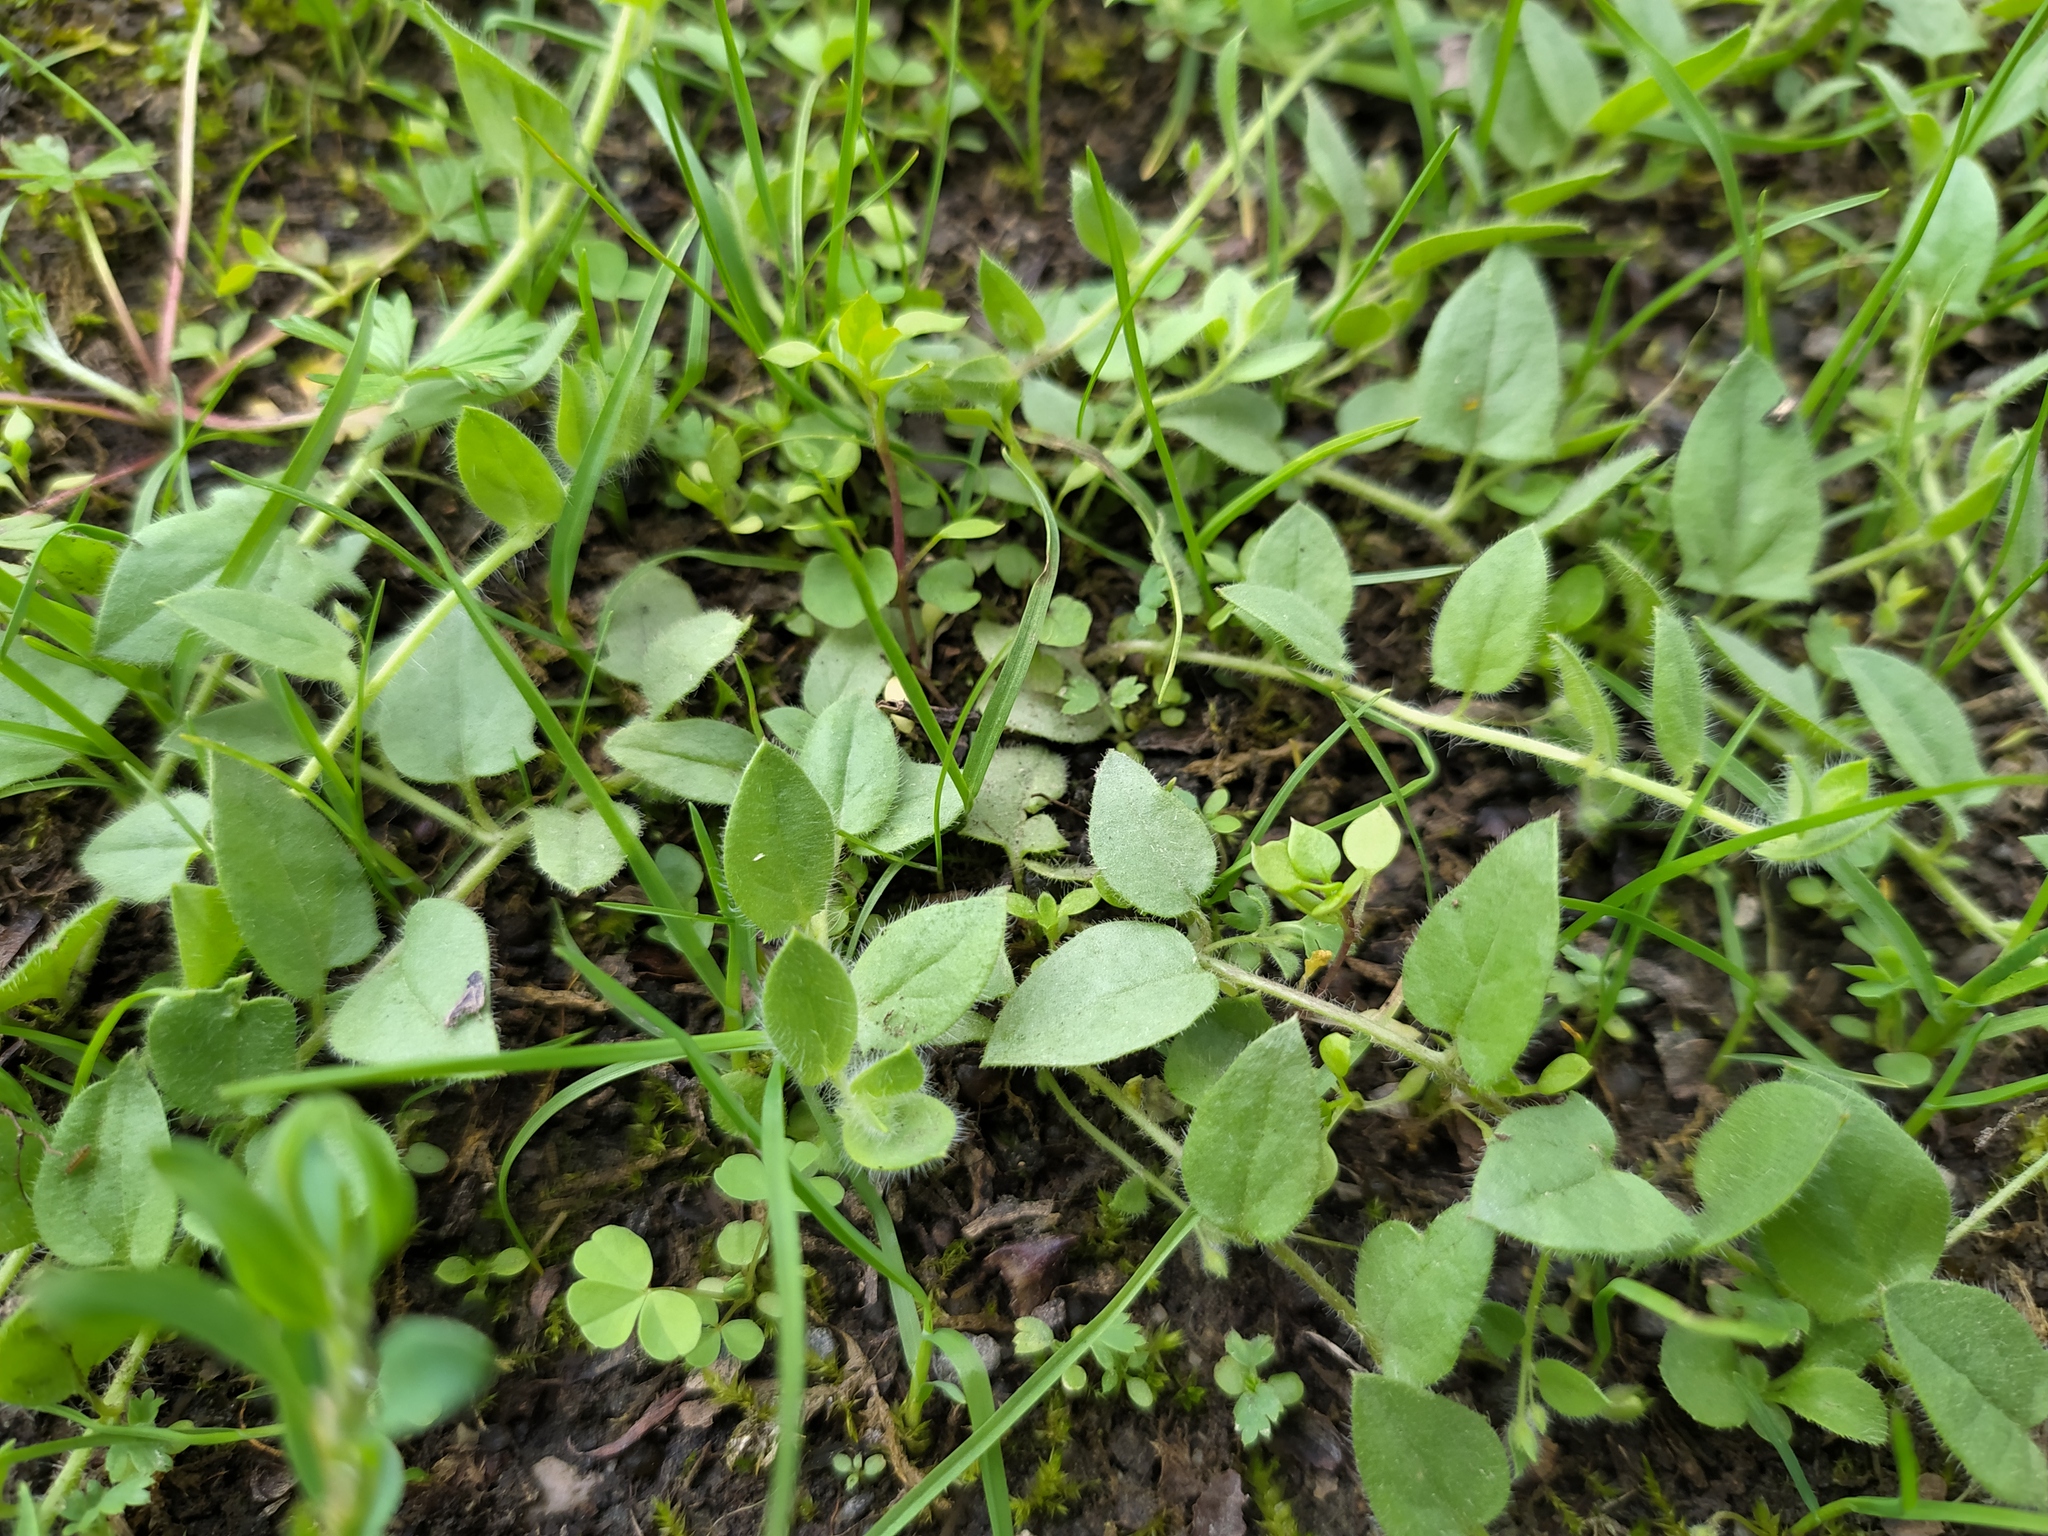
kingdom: Plantae
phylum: Tracheophyta
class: Magnoliopsida
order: Lamiales
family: Plantaginaceae
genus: Kickxia
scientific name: Kickxia elatine
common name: Sharp-leaved fluellen
